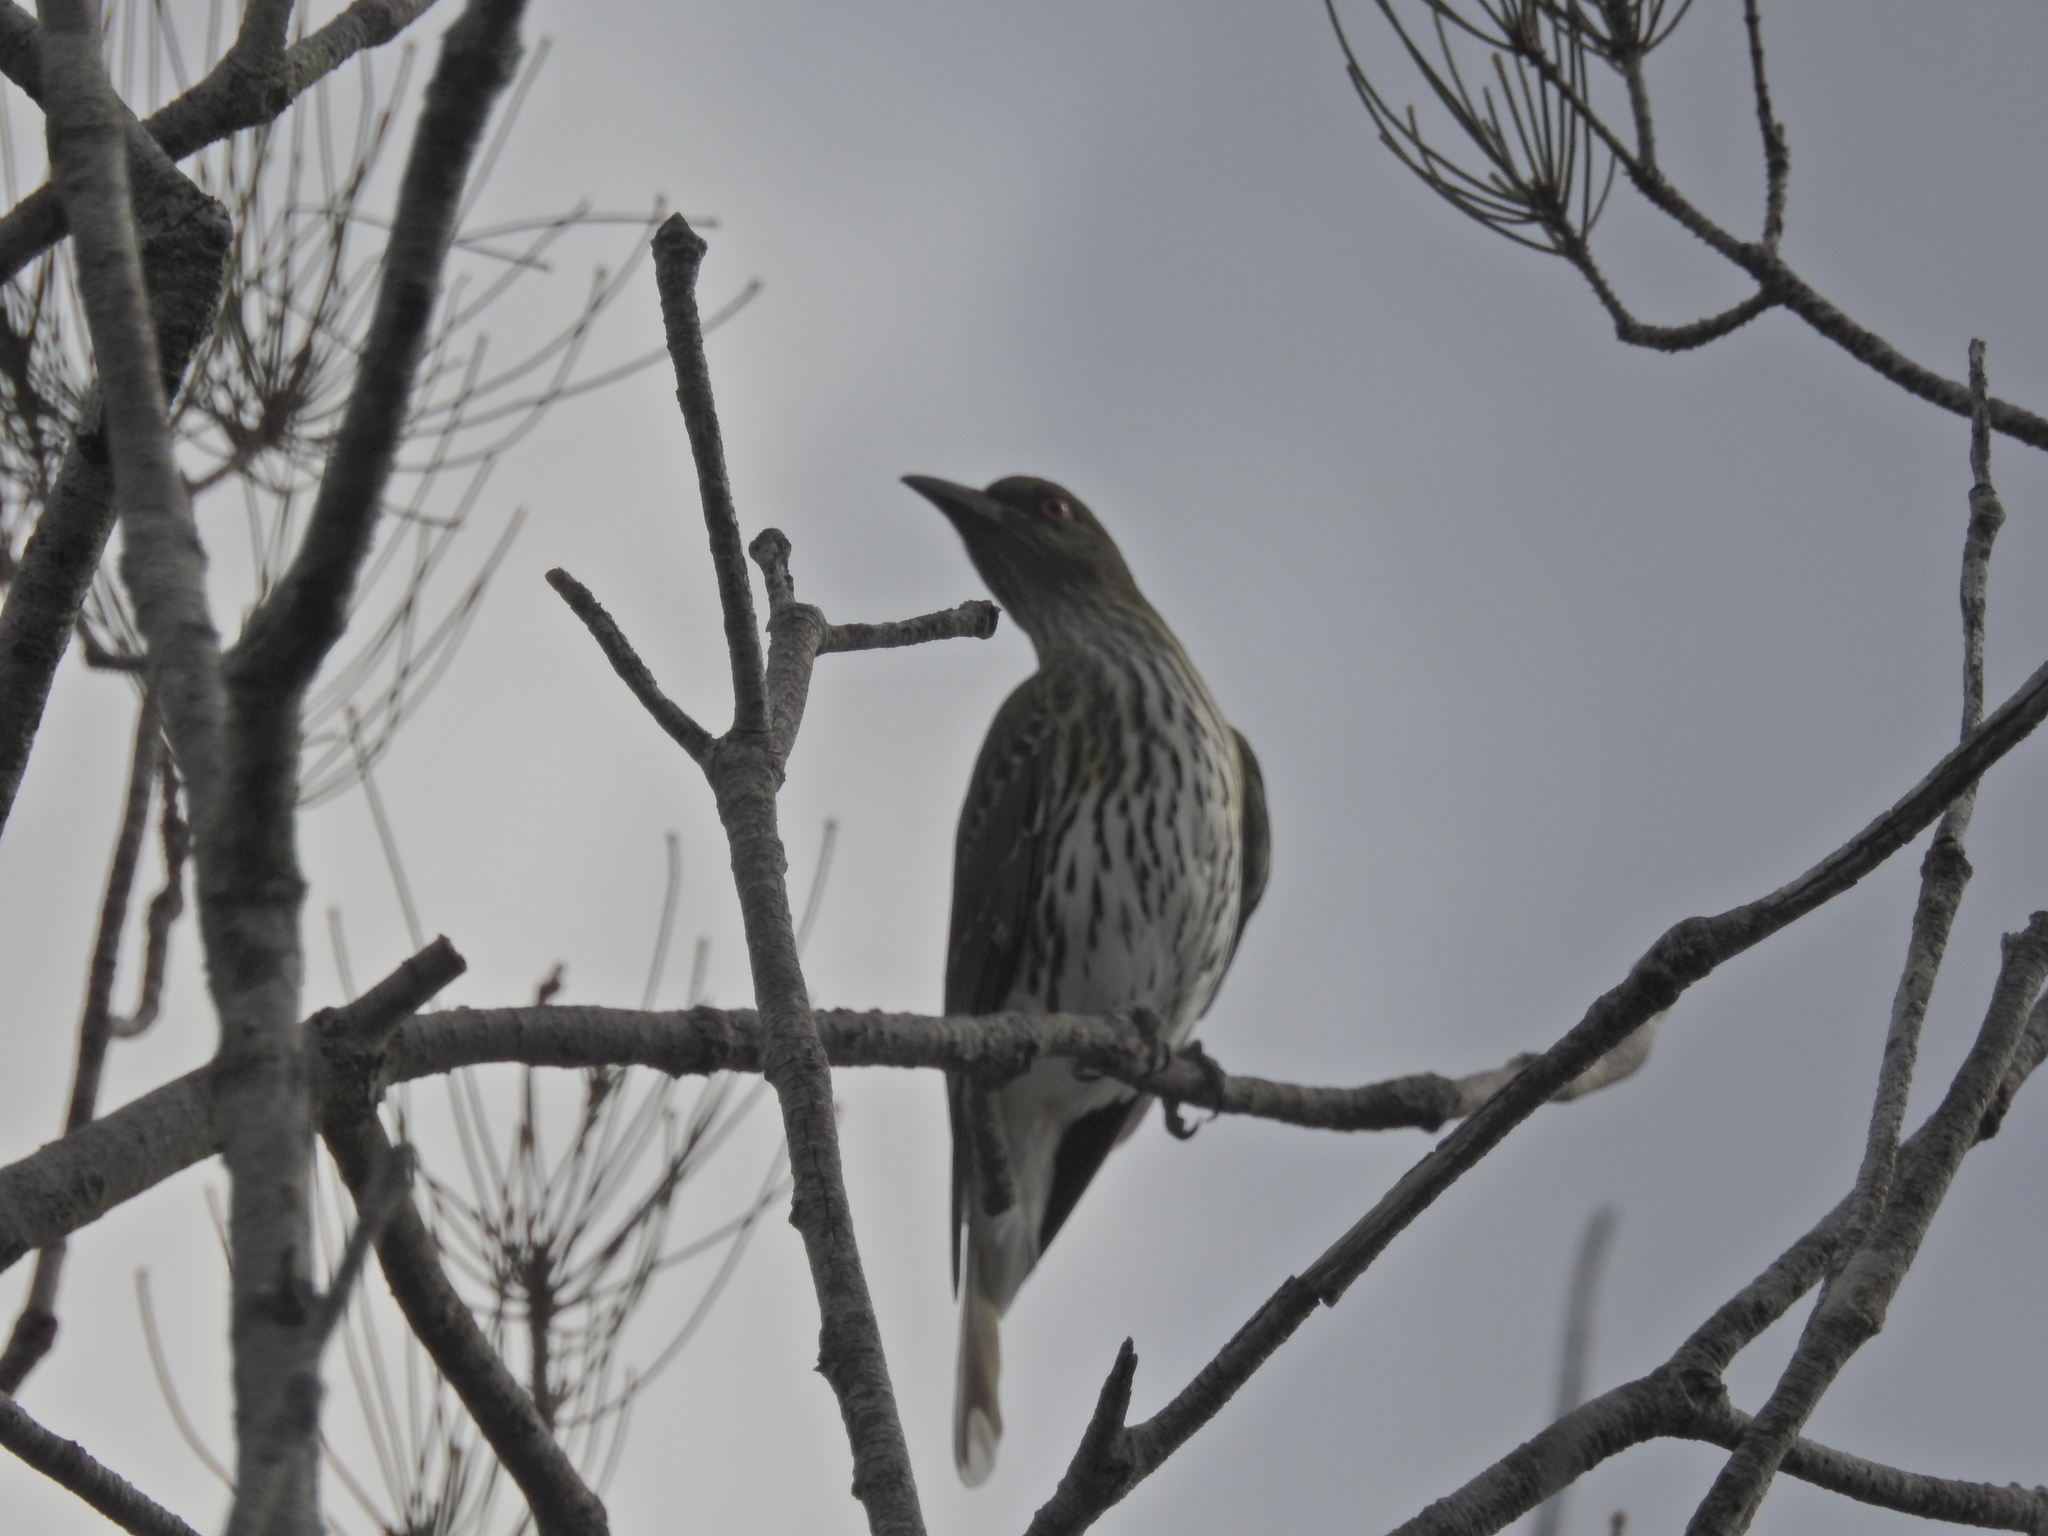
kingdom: Animalia
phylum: Chordata
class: Aves
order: Passeriformes
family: Oriolidae
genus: Oriolus
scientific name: Oriolus sagittatus
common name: Olive-backed oriole
